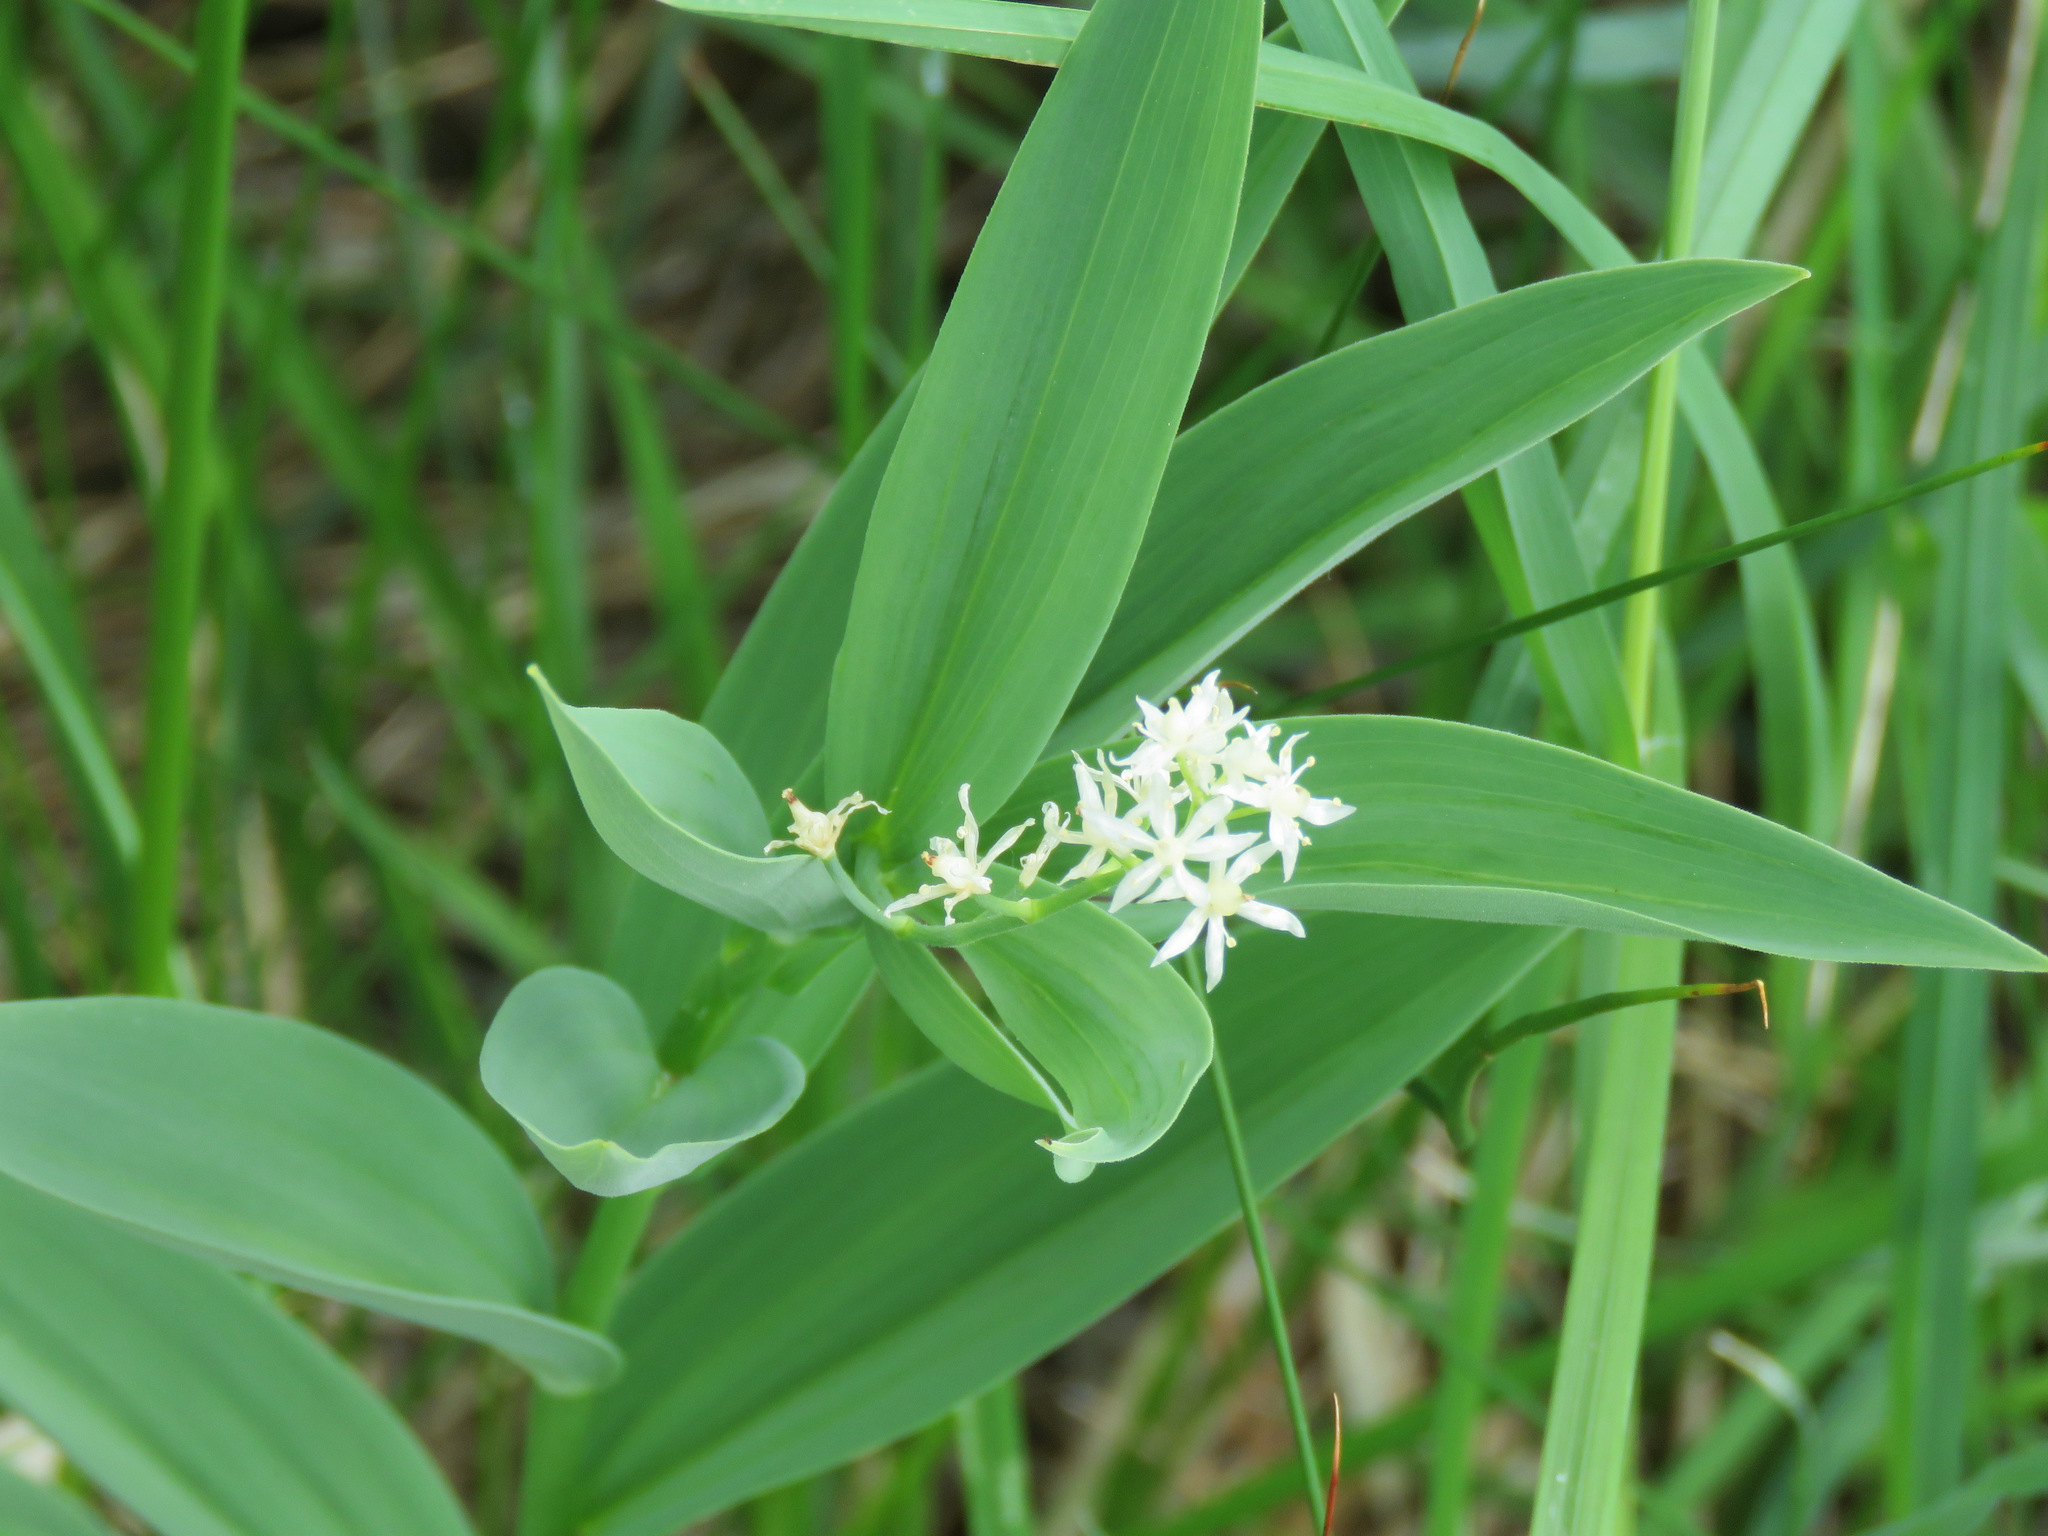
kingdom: Plantae
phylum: Tracheophyta
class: Liliopsida
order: Asparagales
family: Asparagaceae
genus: Maianthemum
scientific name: Maianthemum stellatum
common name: Little false solomon's seal
